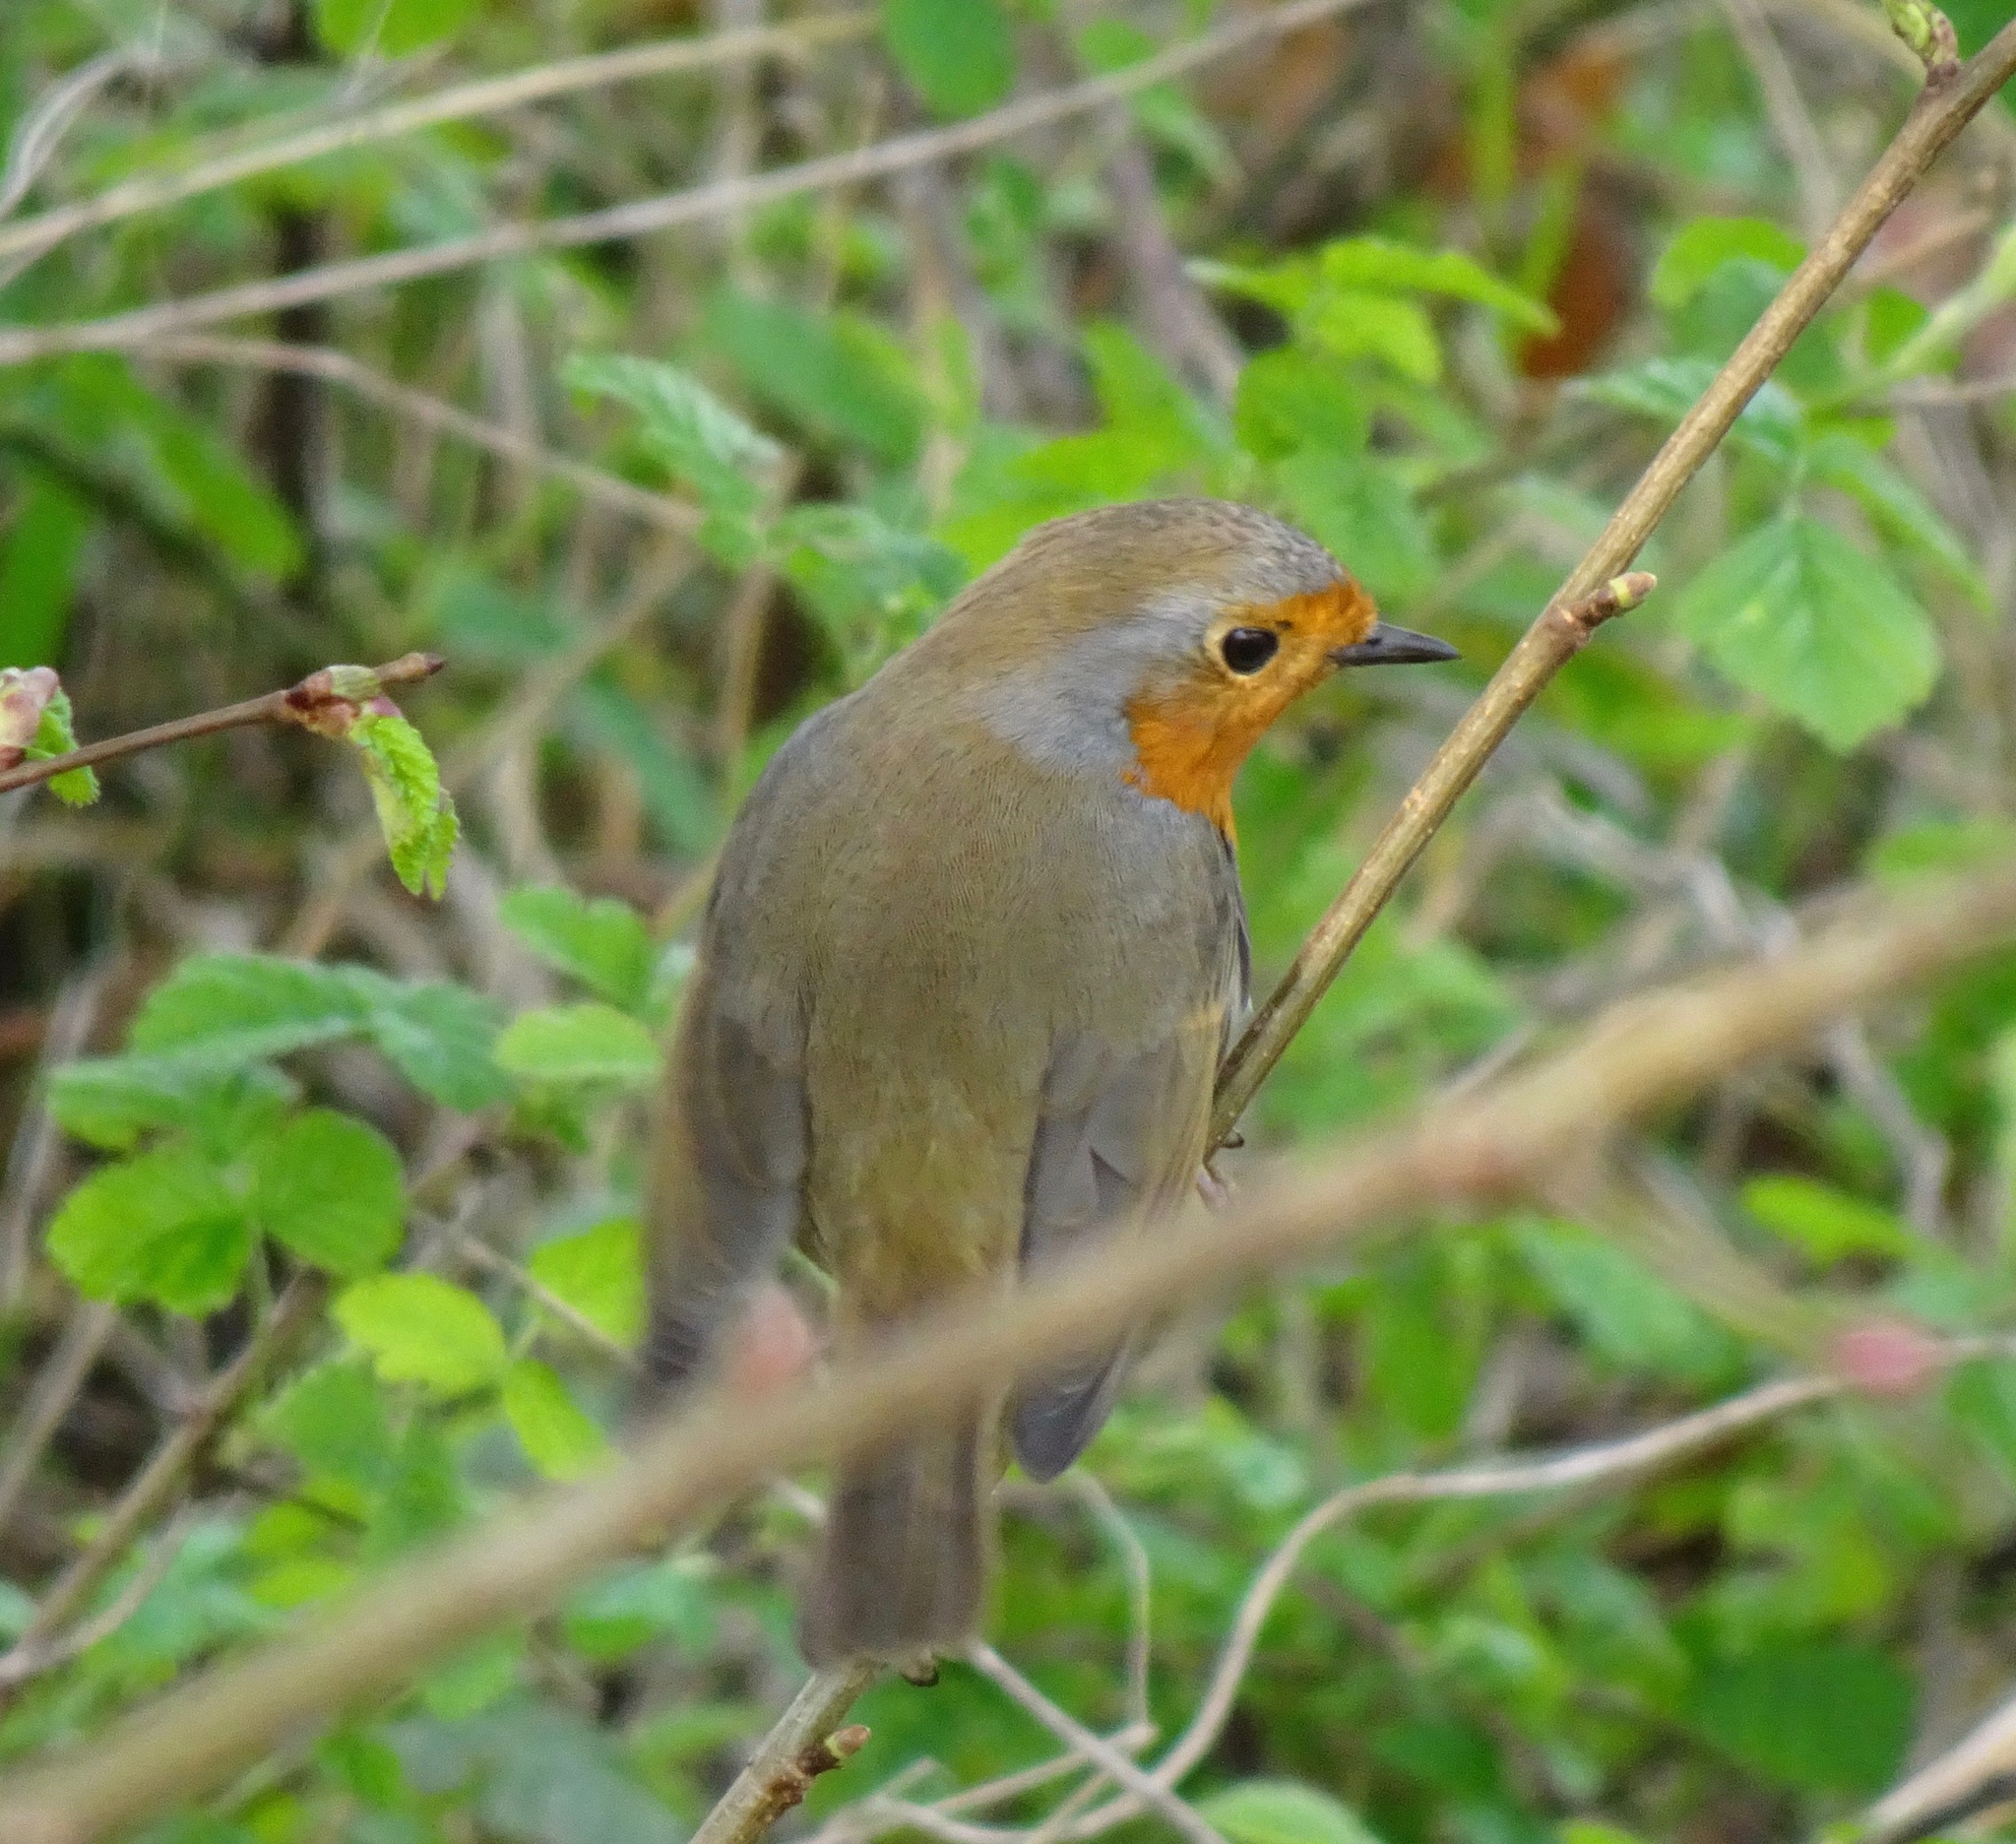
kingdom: Animalia
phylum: Chordata
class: Aves
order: Passeriformes
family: Muscicapidae
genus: Erithacus
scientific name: Erithacus rubecula
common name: European robin
